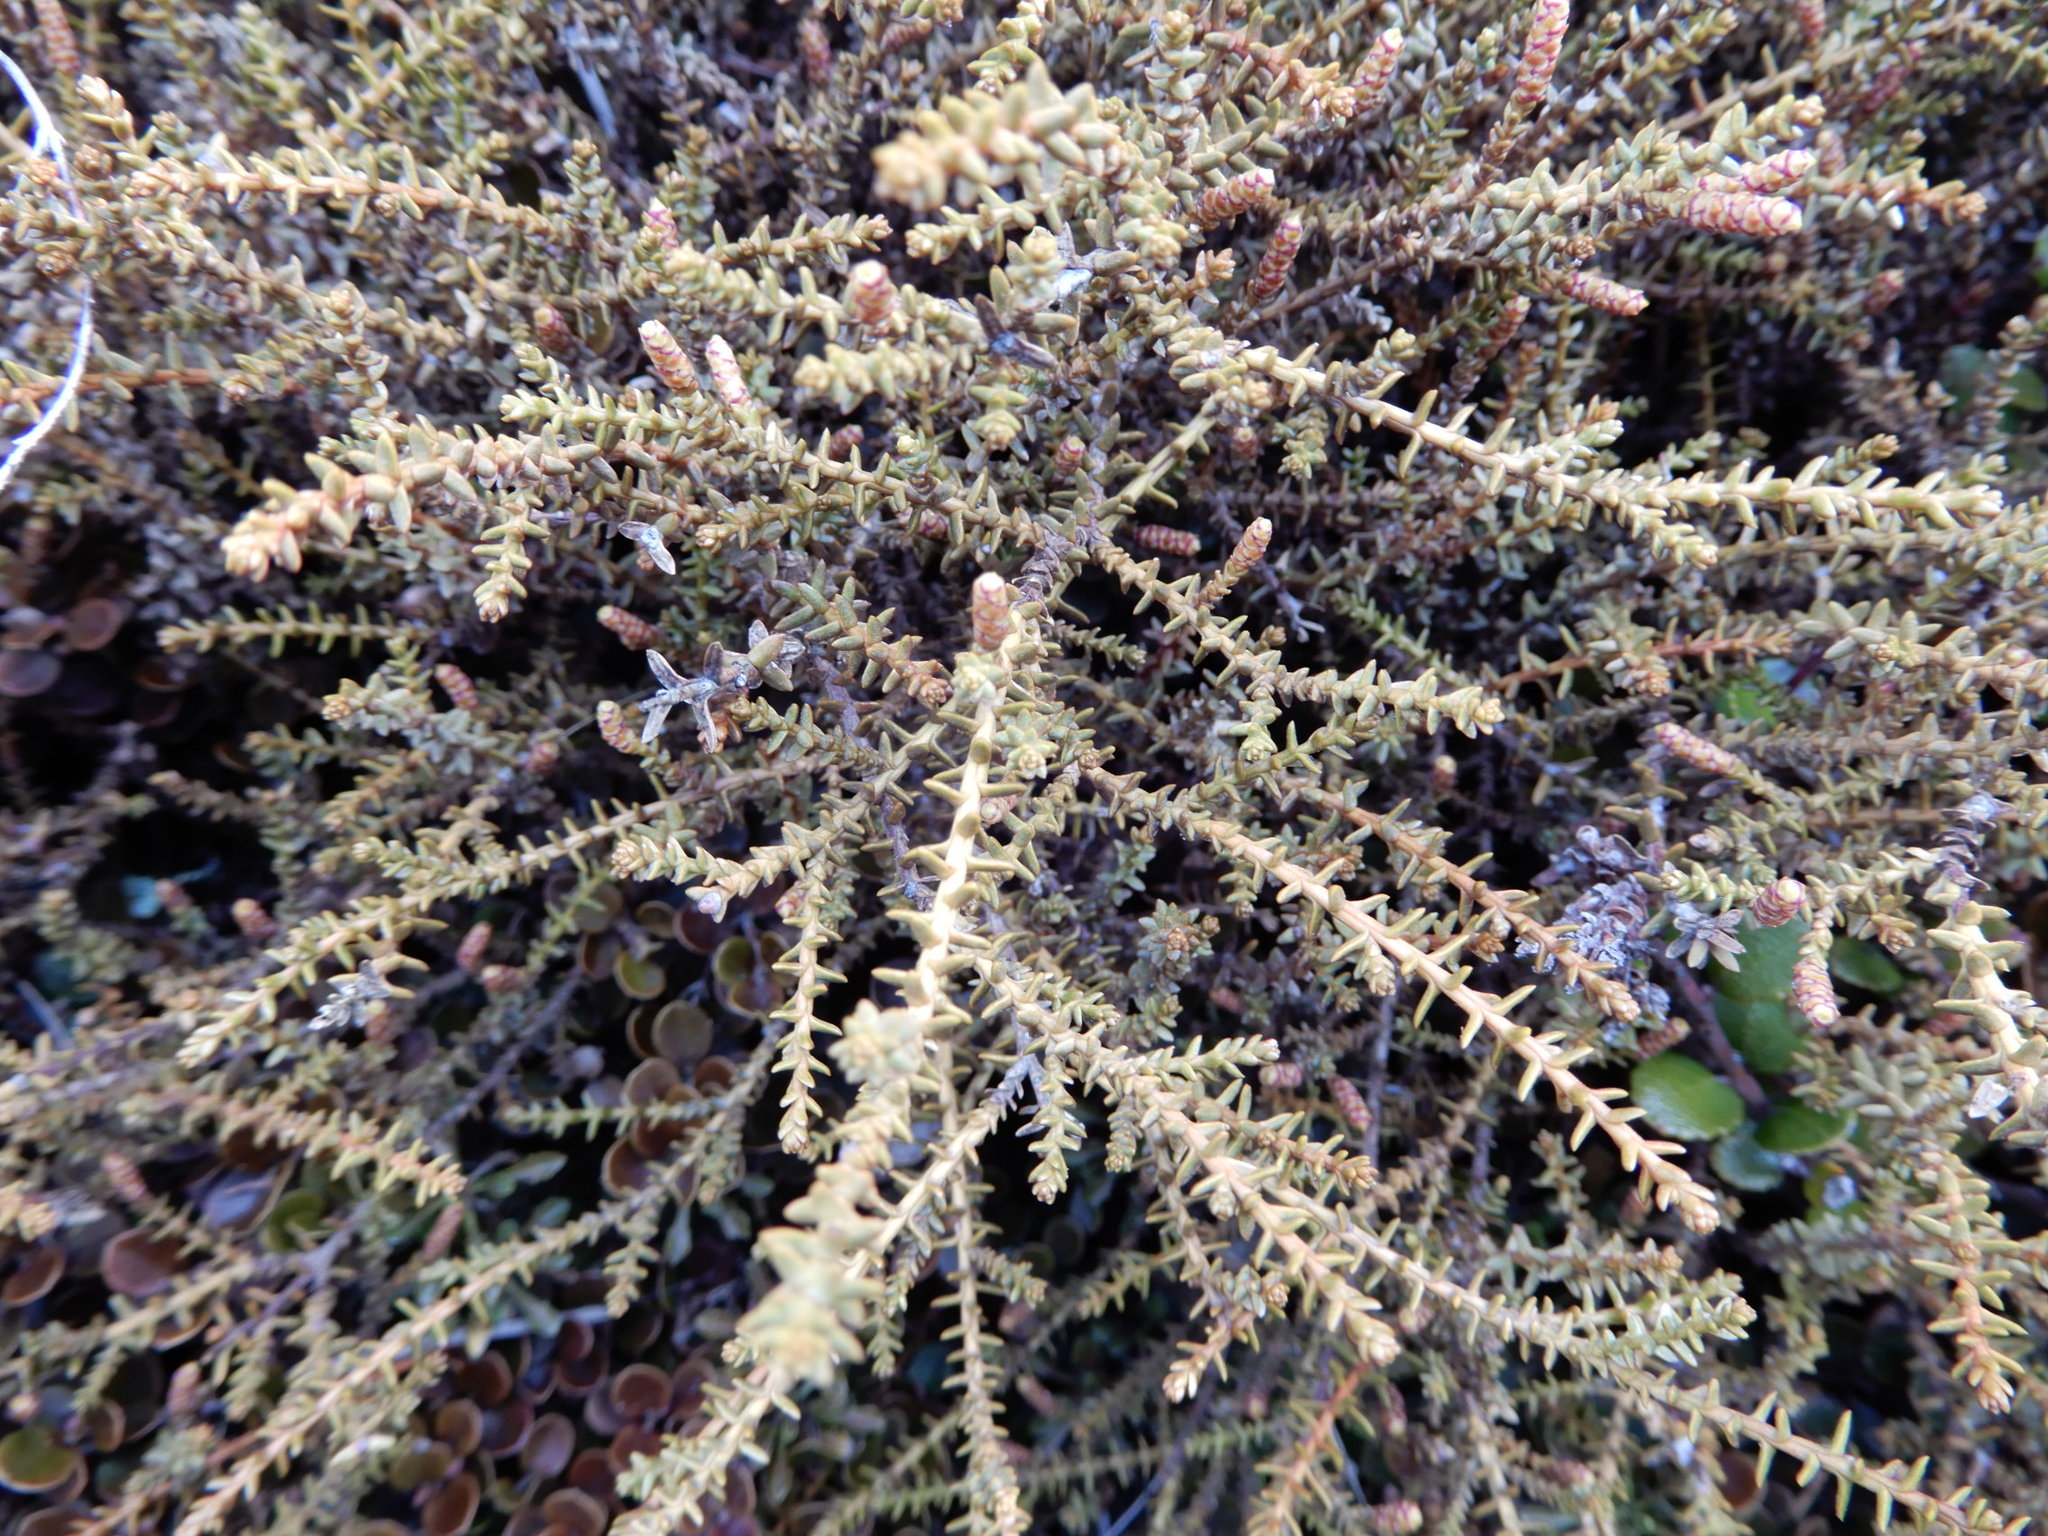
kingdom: Plantae
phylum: Tracheophyta
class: Pinopsida
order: Pinales
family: Podocarpaceae
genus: Lepidothamnus
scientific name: Lepidothamnus laxifolius
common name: Pygmy pine
